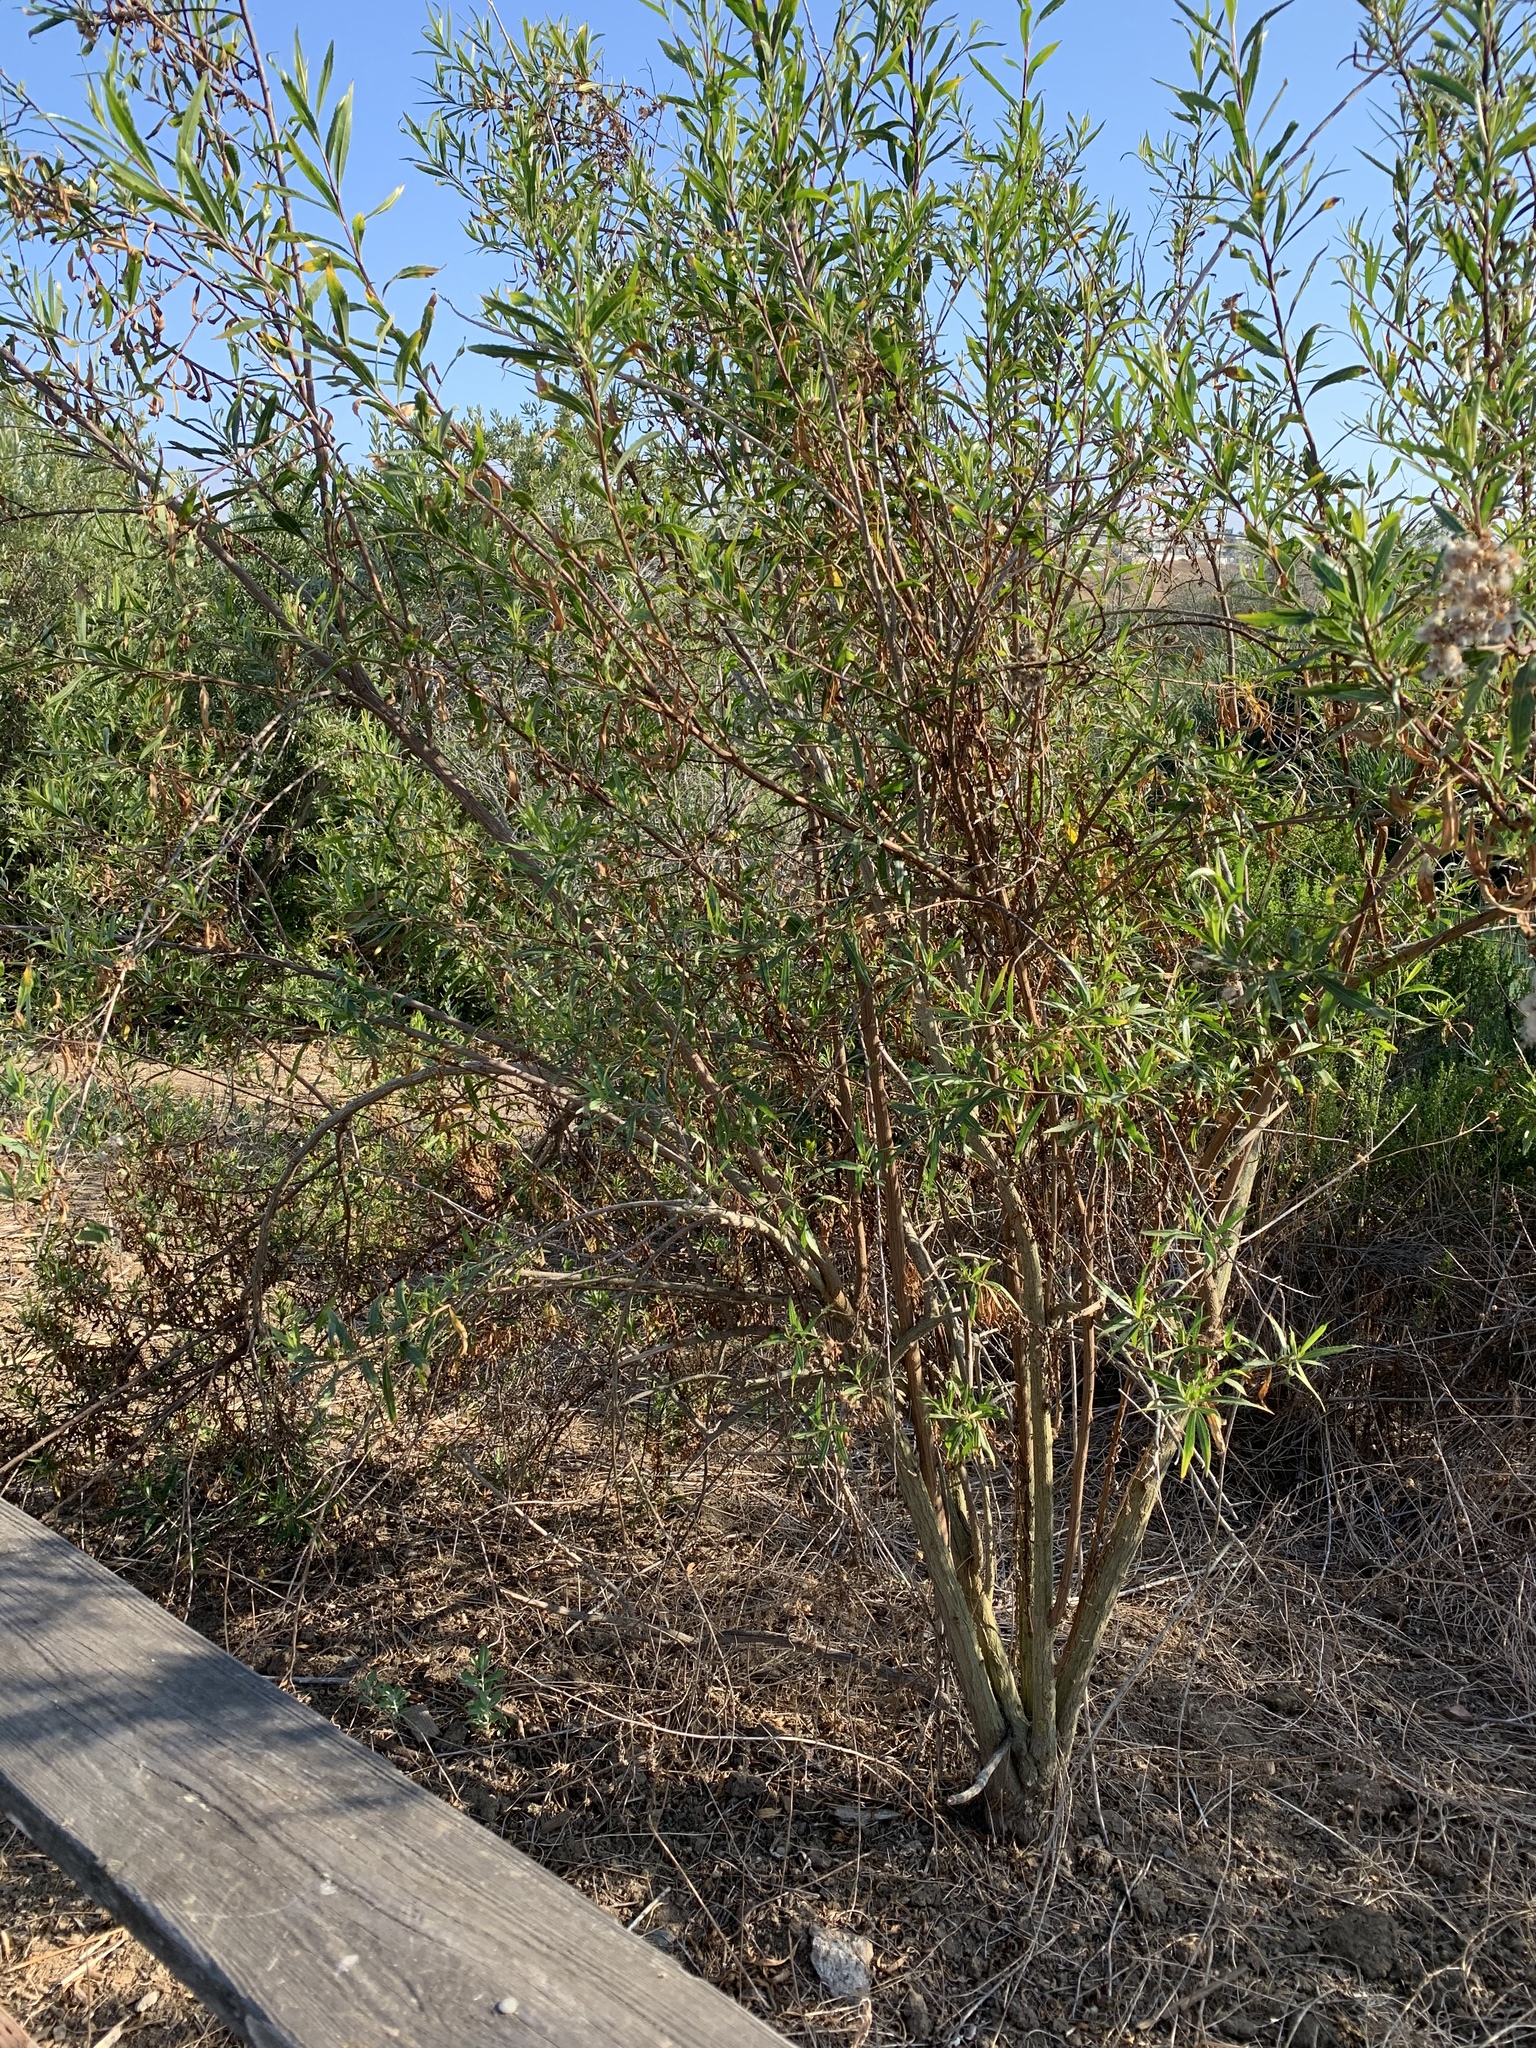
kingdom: Plantae
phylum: Tracheophyta
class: Magnoliopsida
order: Asterales
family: Asteraceae
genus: Baccharis
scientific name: Baccharis salicifolia
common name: Sticky baccharis
